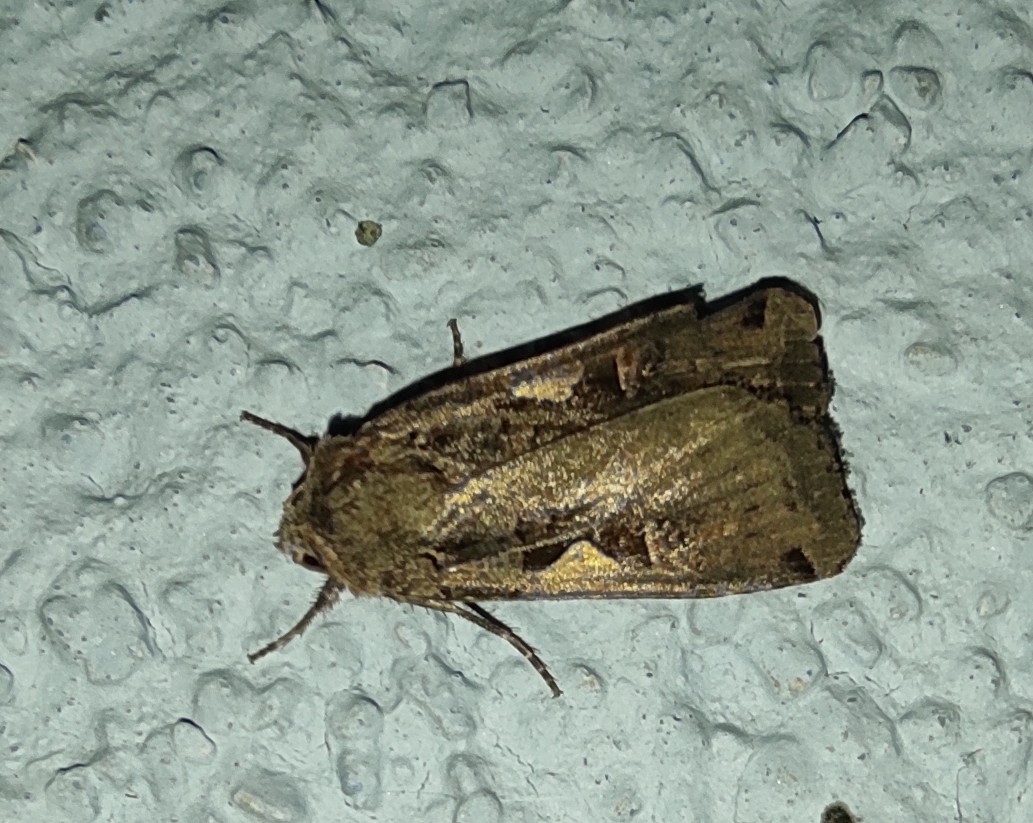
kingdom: Animalia
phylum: Arthropoda
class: Insecta
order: Lepidoptera
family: Noctuidae
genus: Xestia
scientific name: Xestia c-nigrum
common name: Setaceous hebrew character
